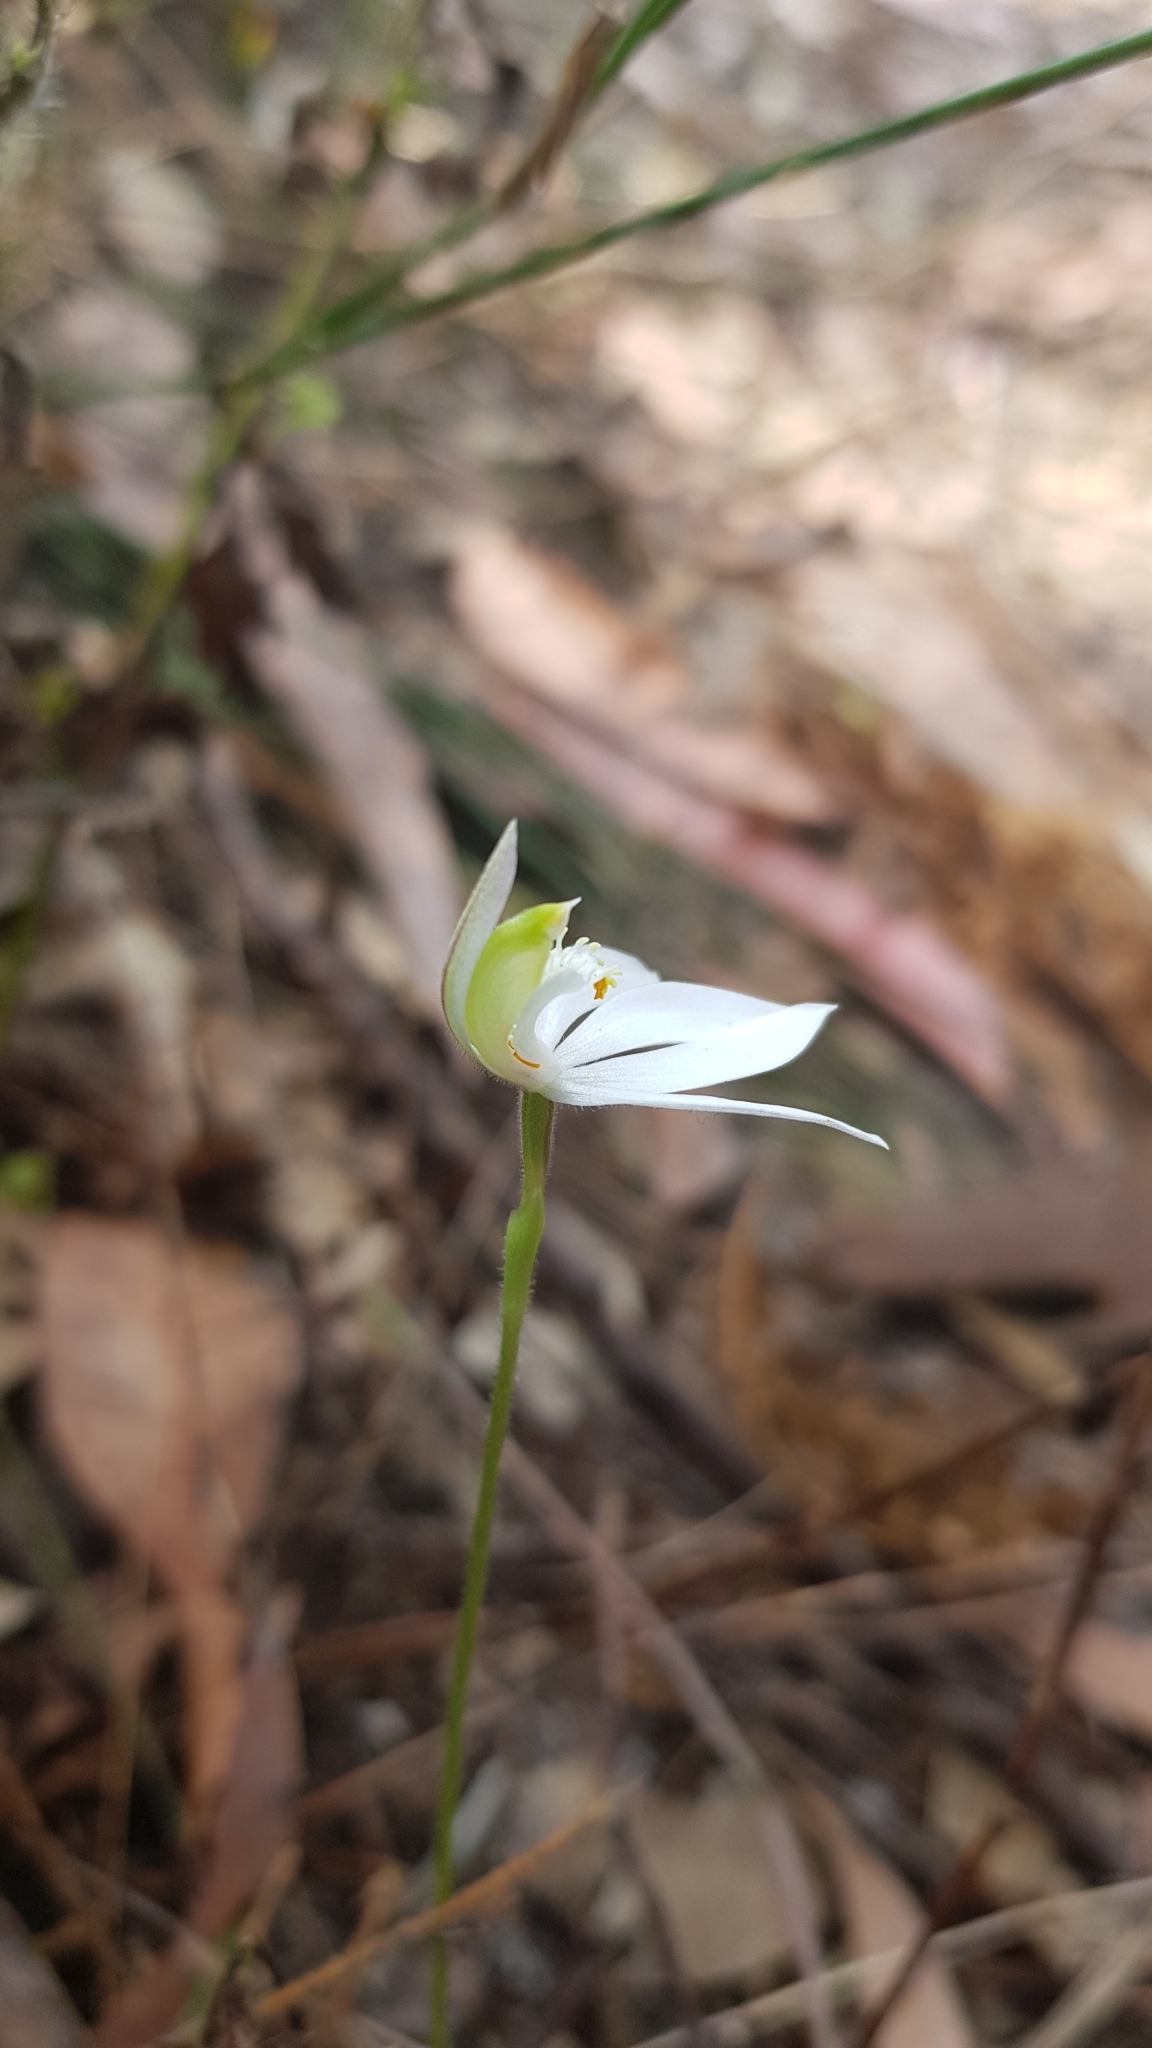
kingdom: Plantae
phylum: Tracheophyta
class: Liliopsida
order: Asparagales
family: Orchidaceae
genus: Caladenia
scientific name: Caladenia catenata
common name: White caladenia
